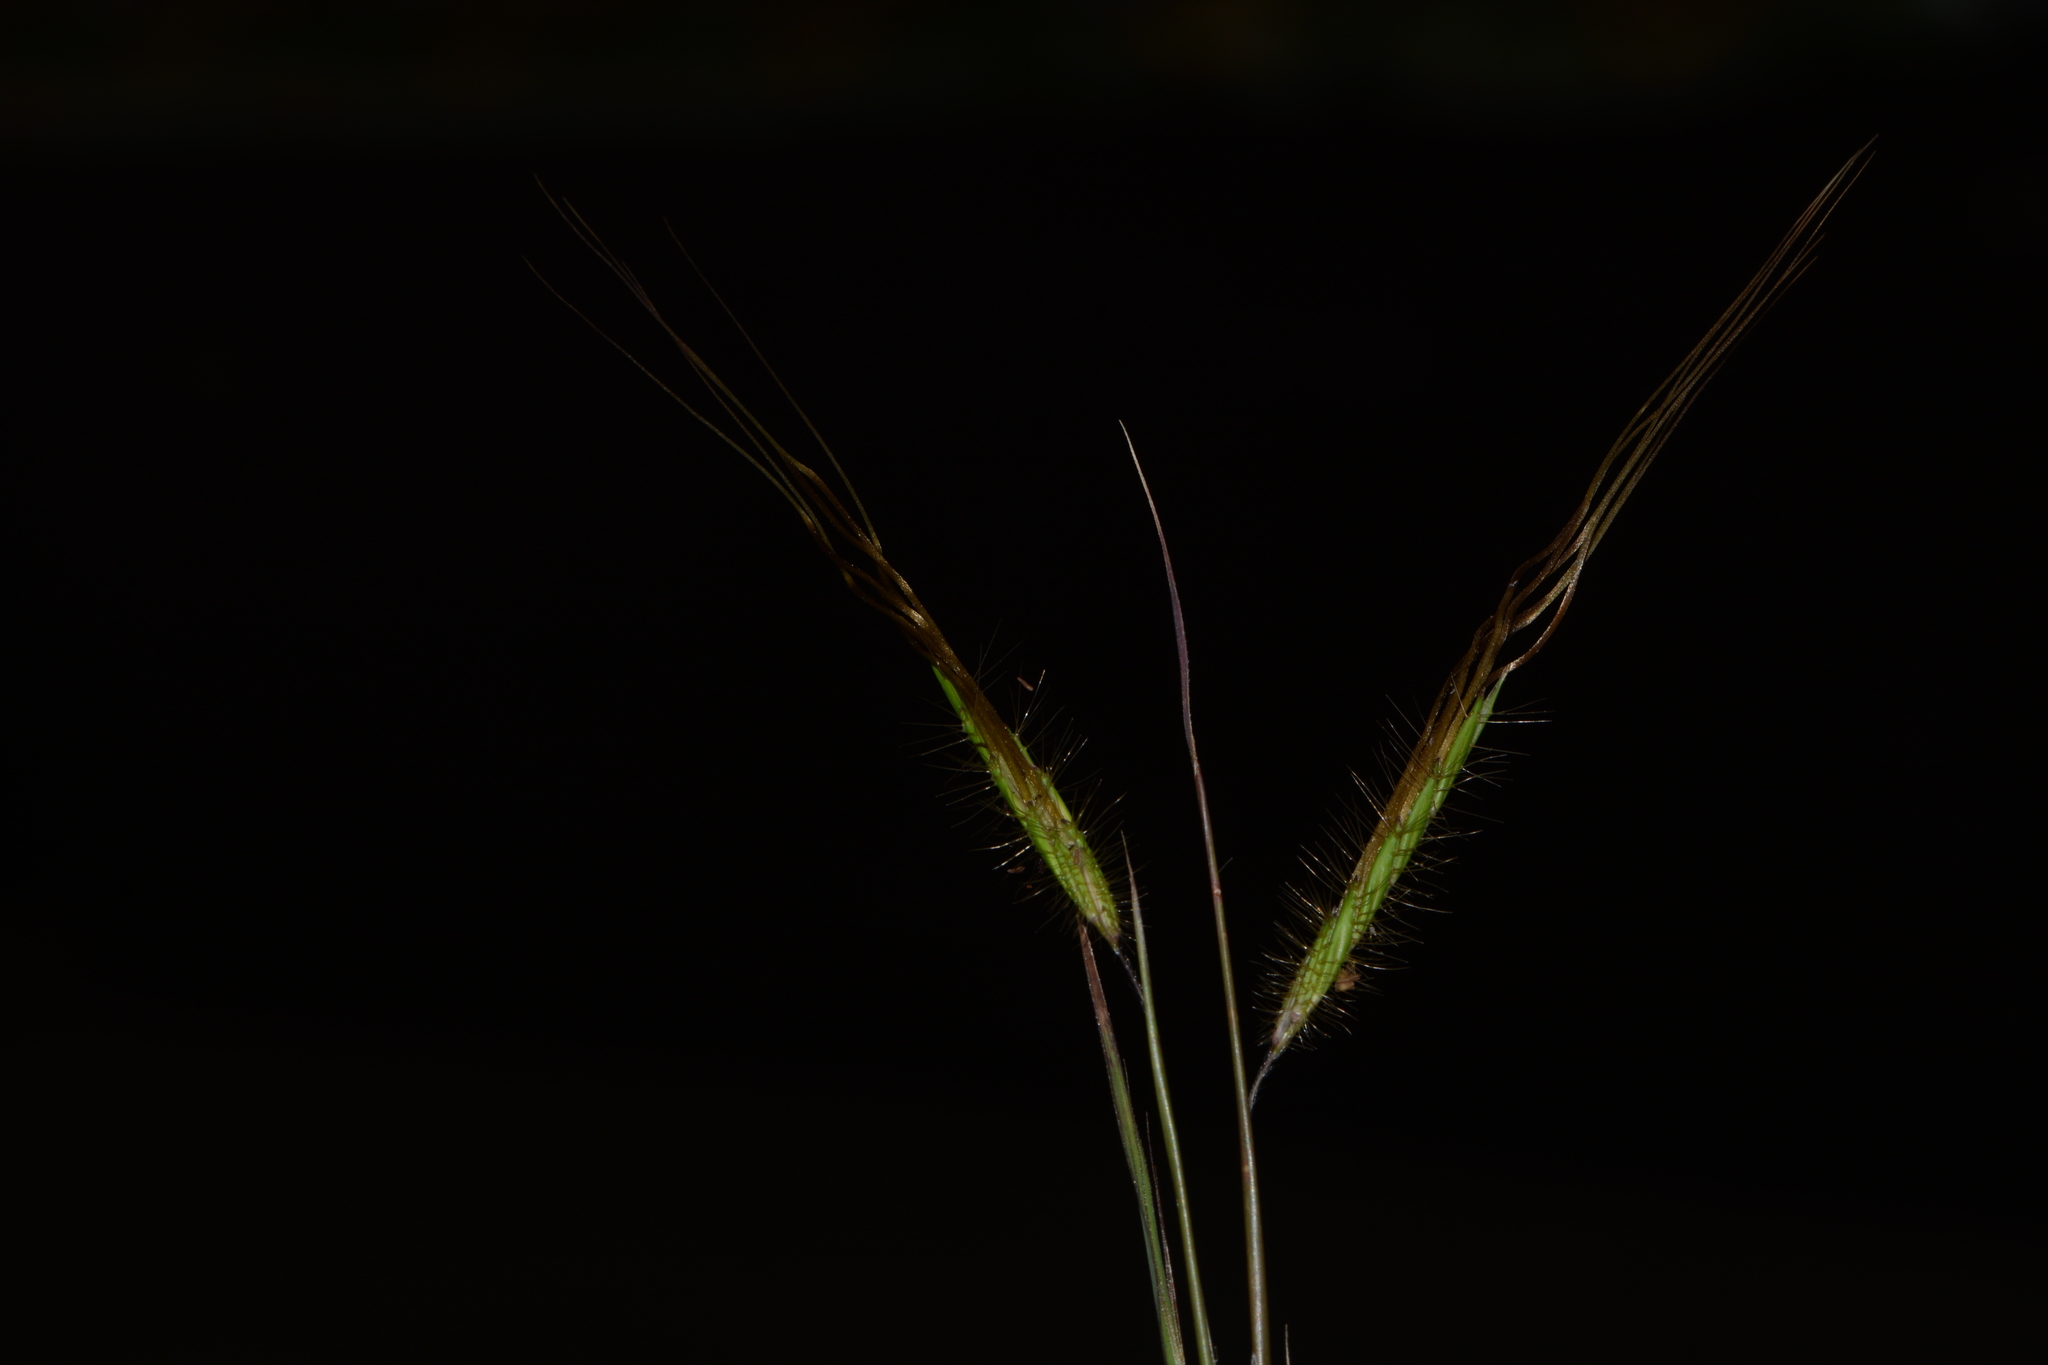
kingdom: Plantae
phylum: Tracheophyta
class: Liliopsida
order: Poales
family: Poaceae
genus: Heteropogon
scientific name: Heteropogon contortus
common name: Tanglehead
